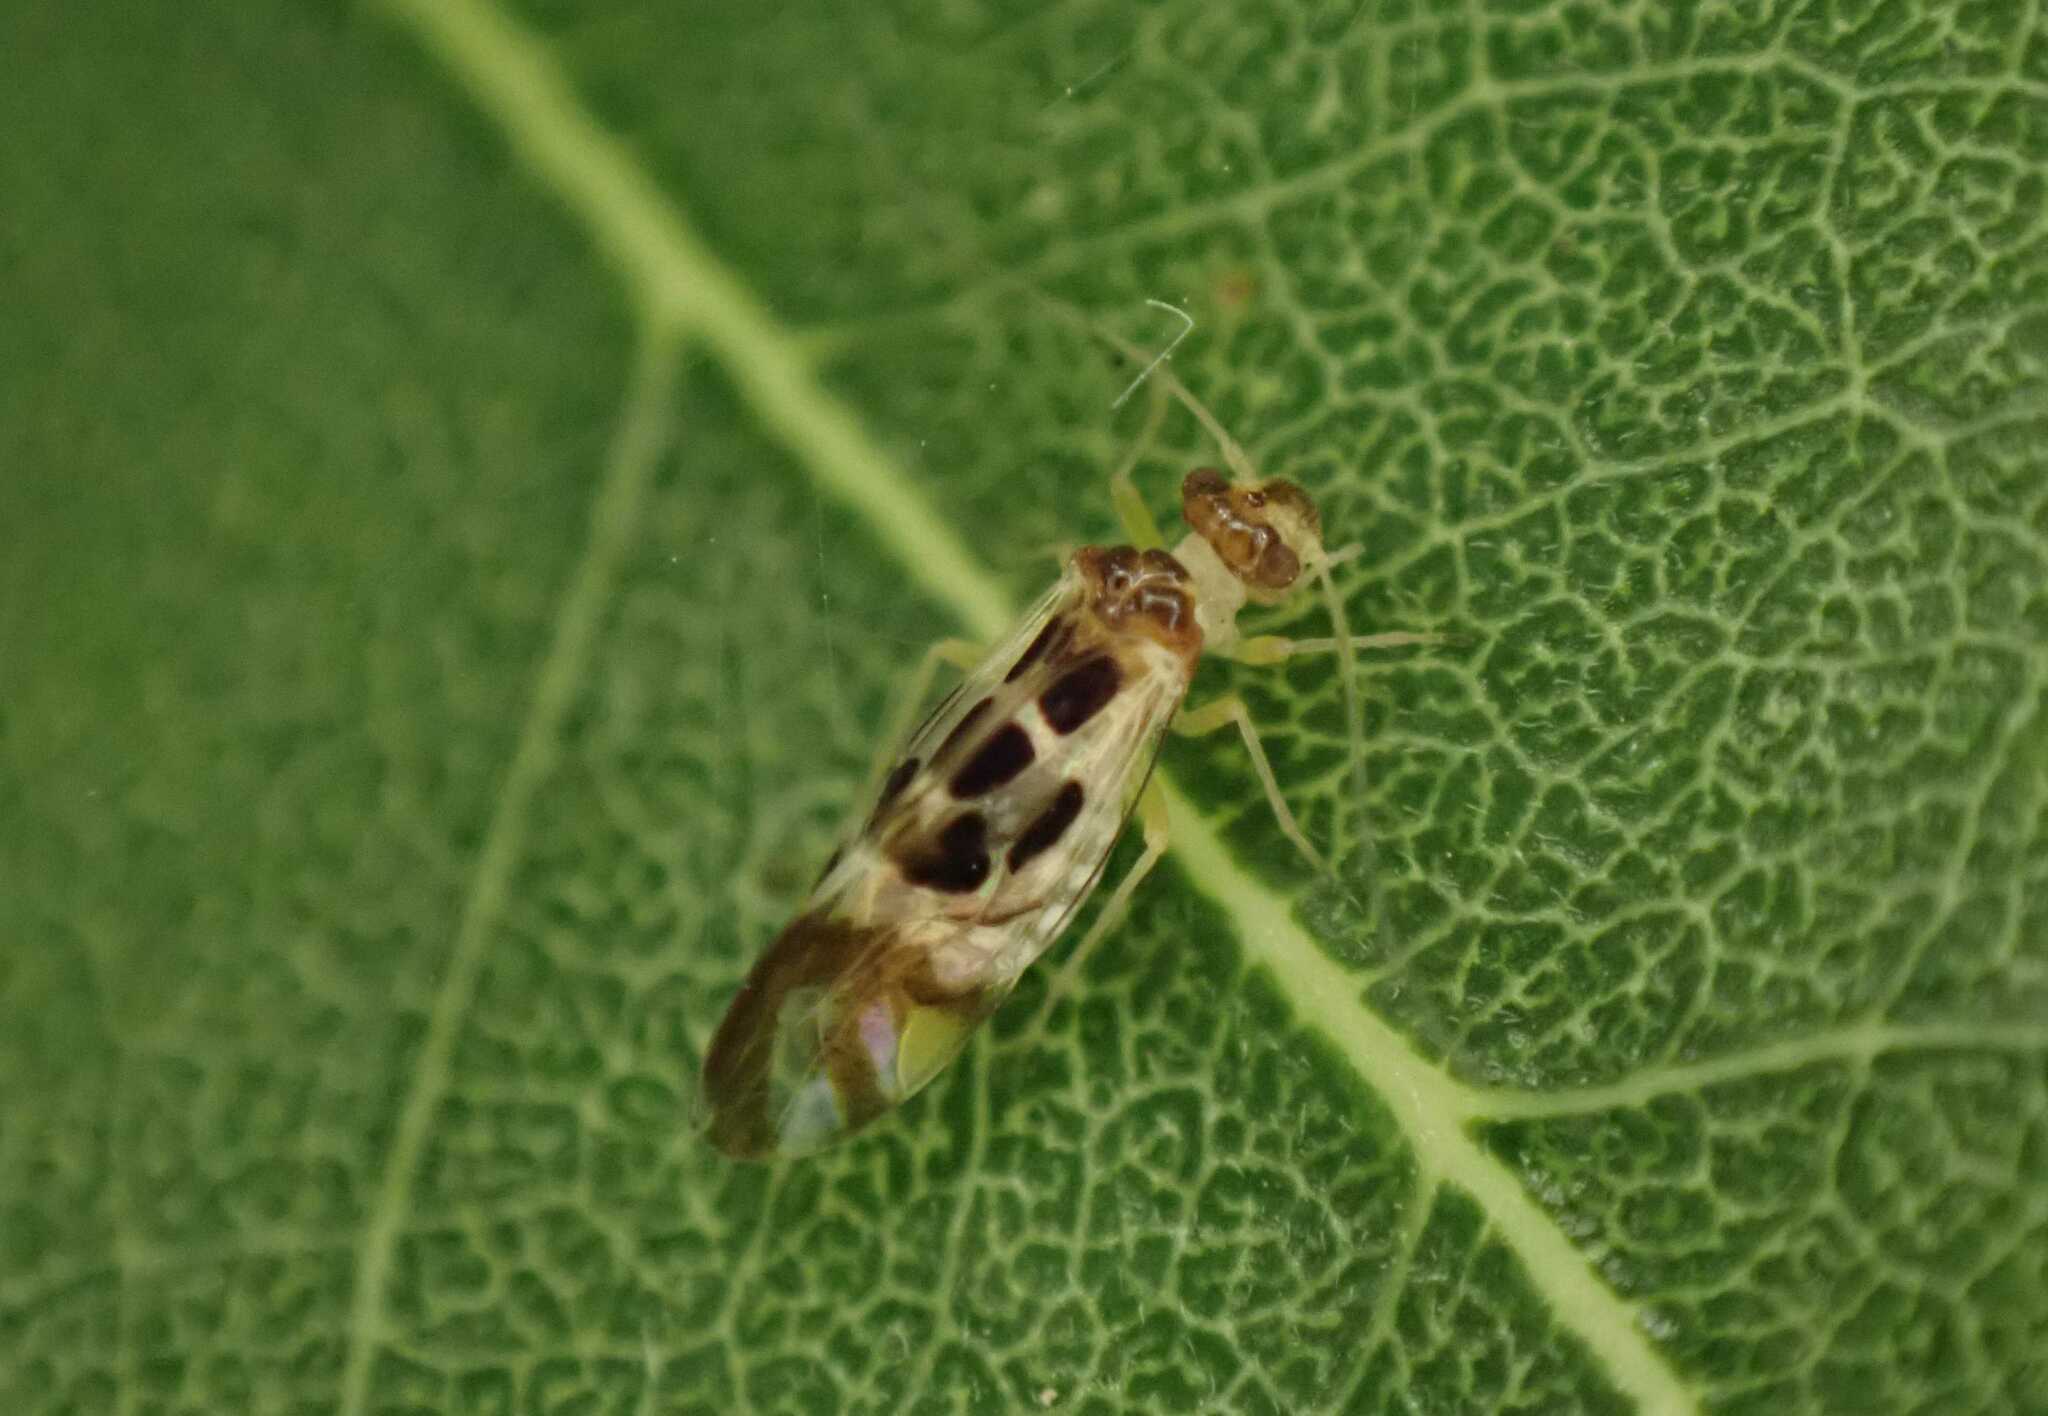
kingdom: Animalia
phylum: Arthropoda
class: Insecta
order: Psocodea
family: Stenopsocidae
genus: Graphopsocus
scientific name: Graphopsocus cruciatus
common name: Lizard bark louse
